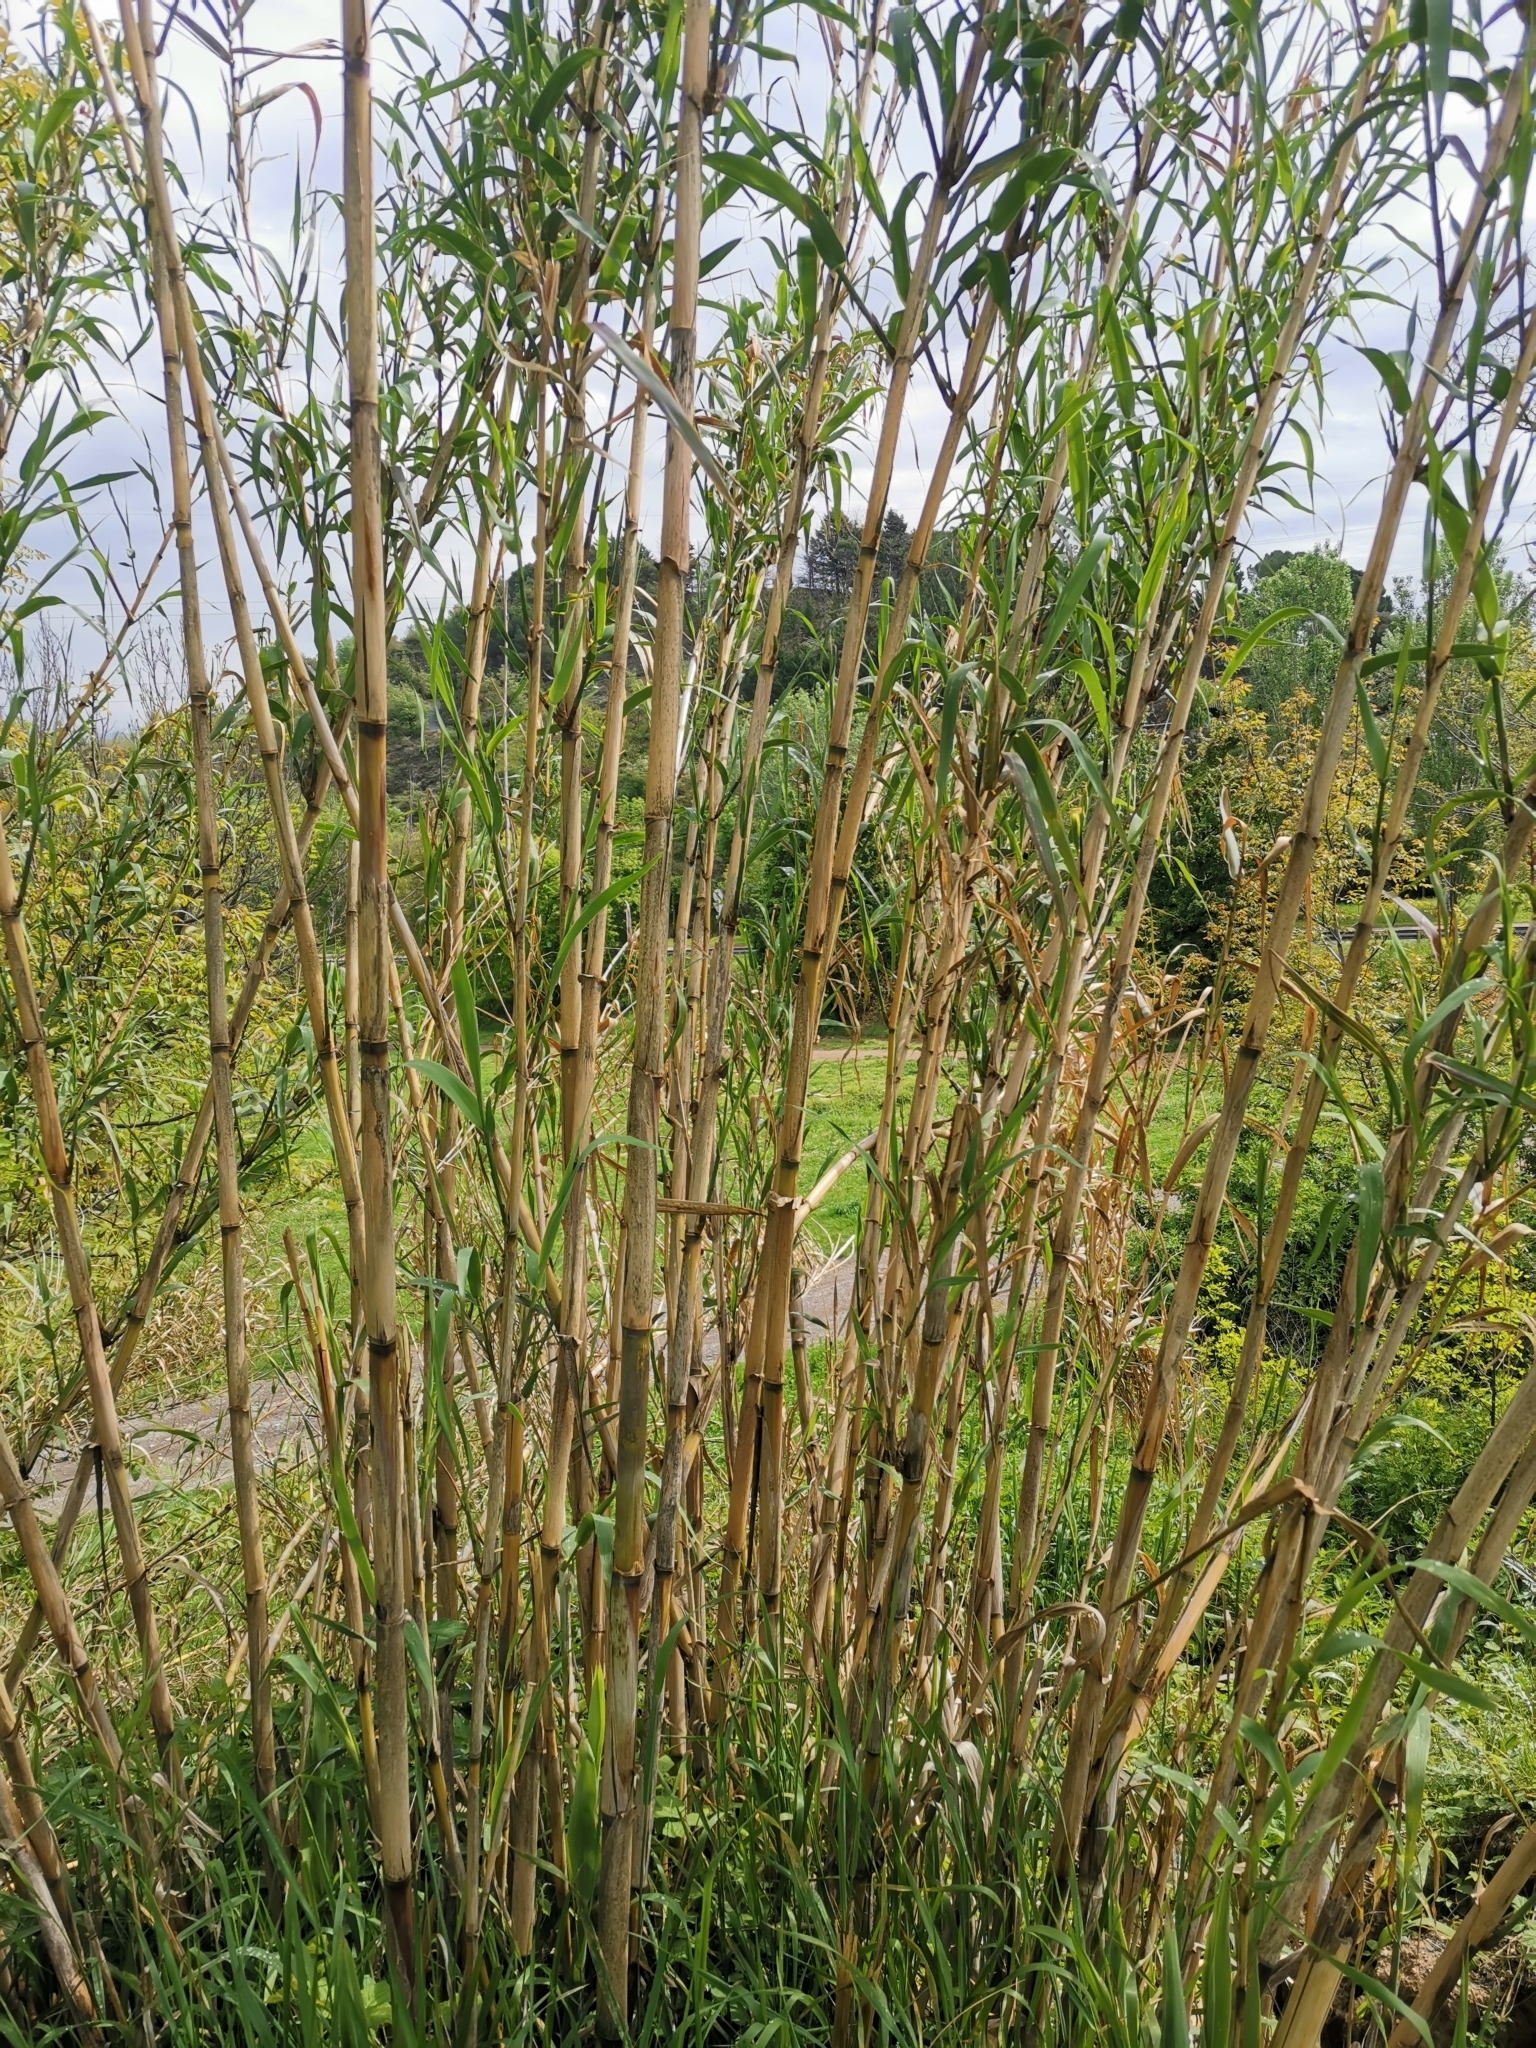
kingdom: Plantae
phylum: Tracheophyta
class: Liliopsida
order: Poales
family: Poaceae
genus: Arundo
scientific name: Arundo donax
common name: Giant reed
